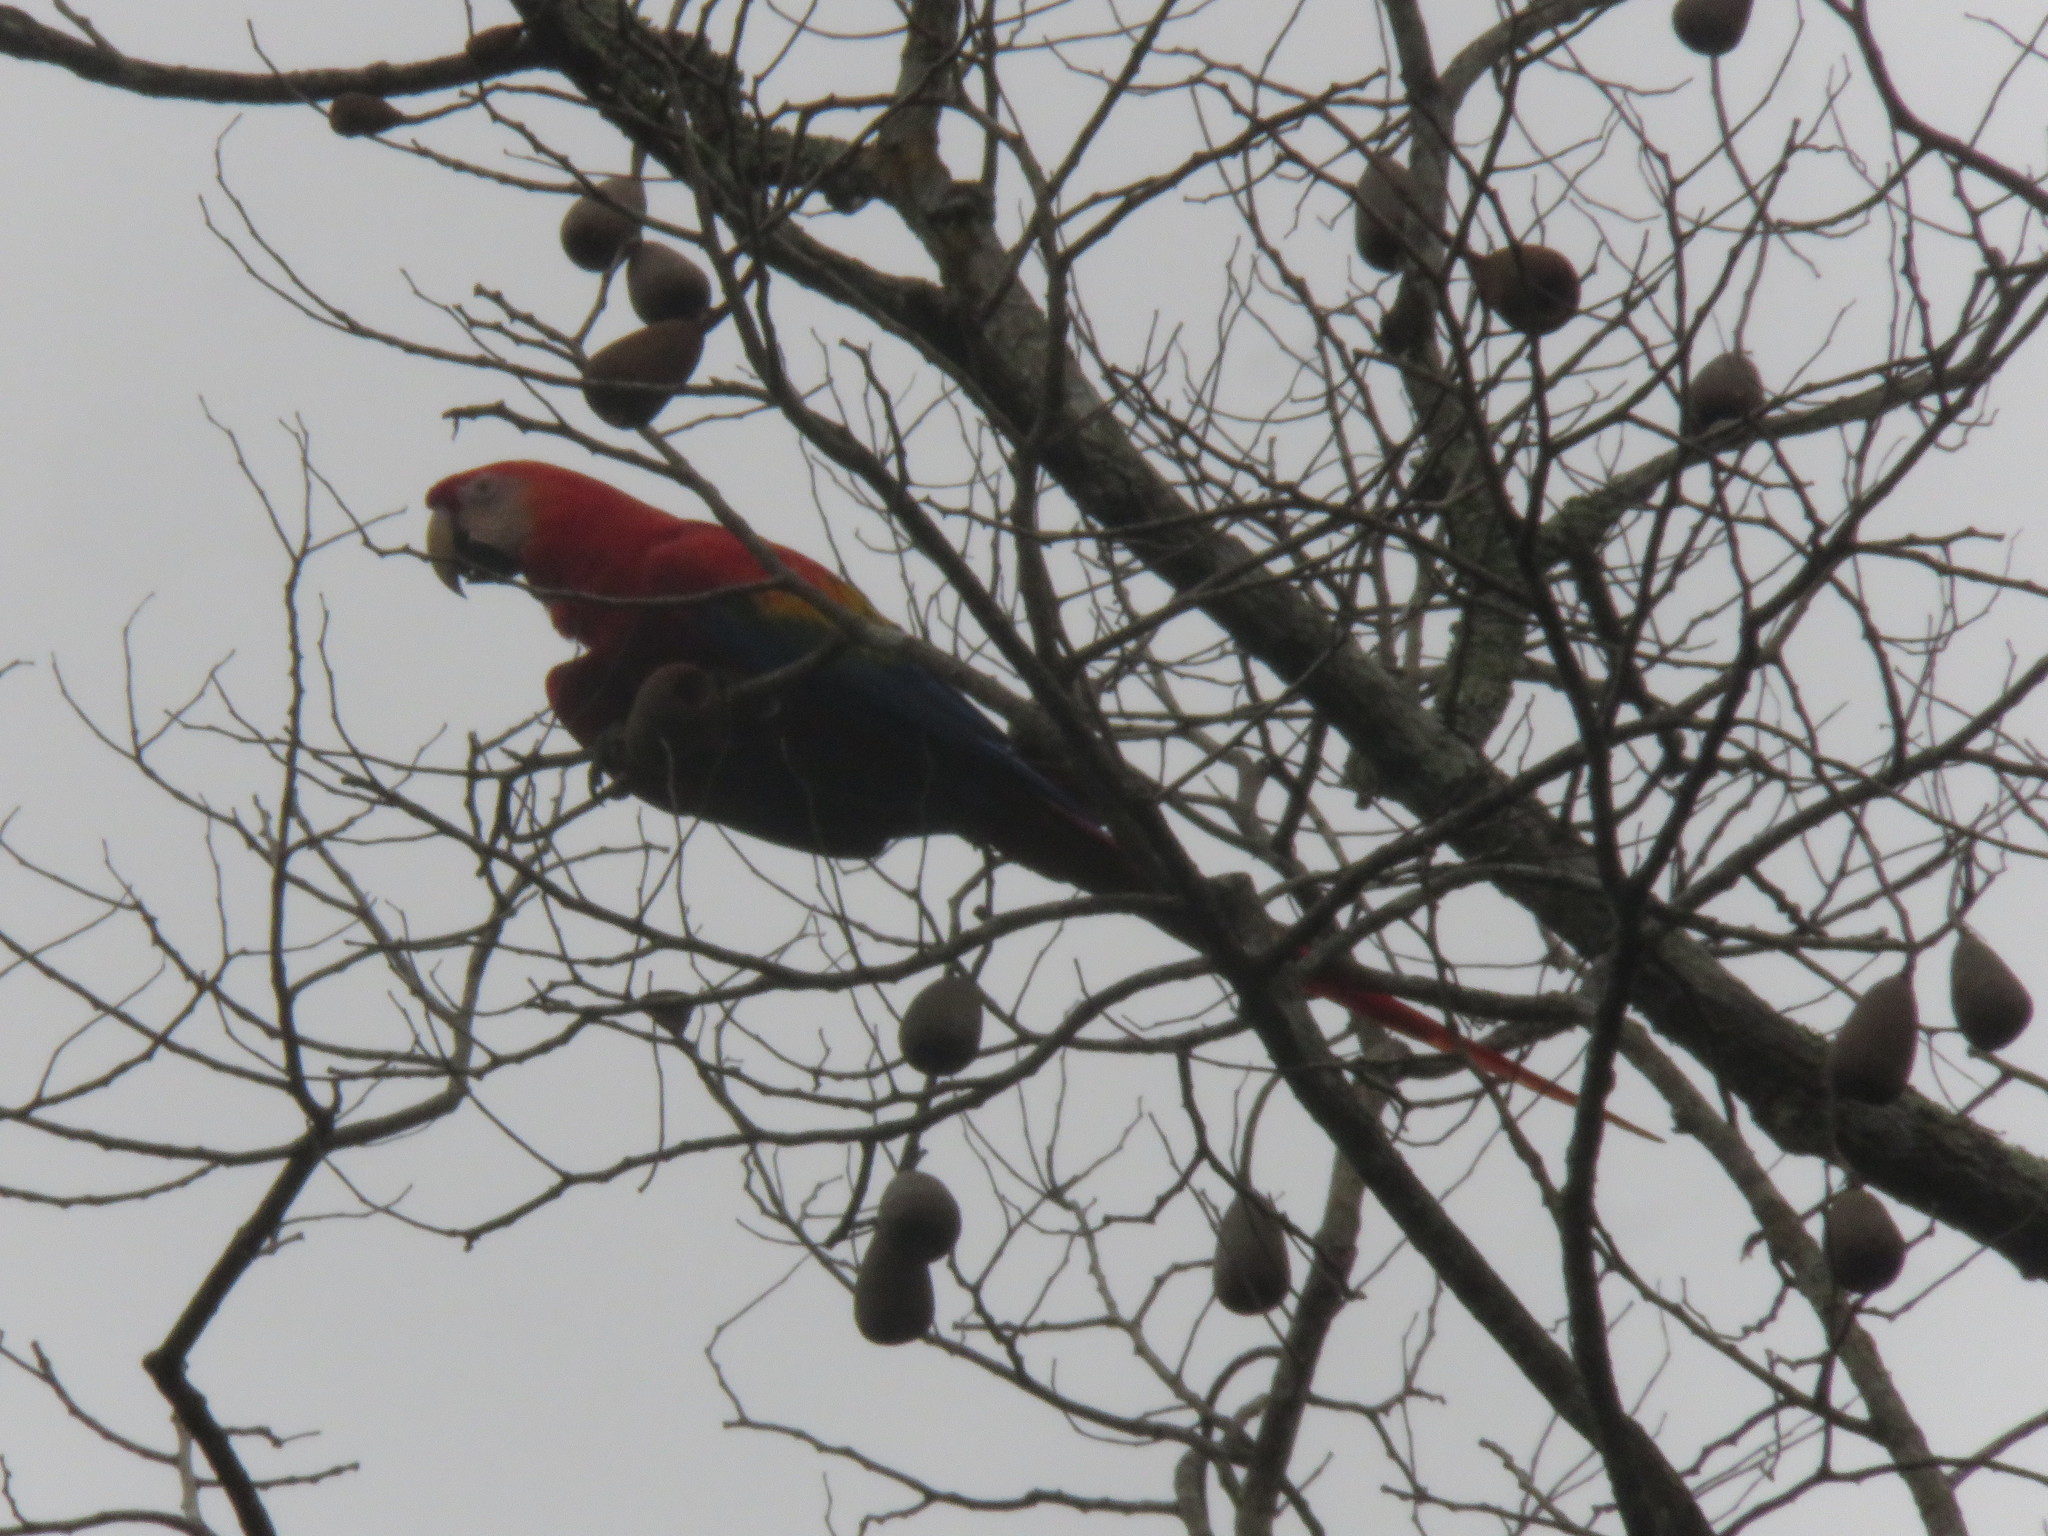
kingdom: Animalia
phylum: Chordata
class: Aves
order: Psittaciformes
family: Psittacidae
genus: Ara
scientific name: Ara macao
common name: Scarlet macaw
